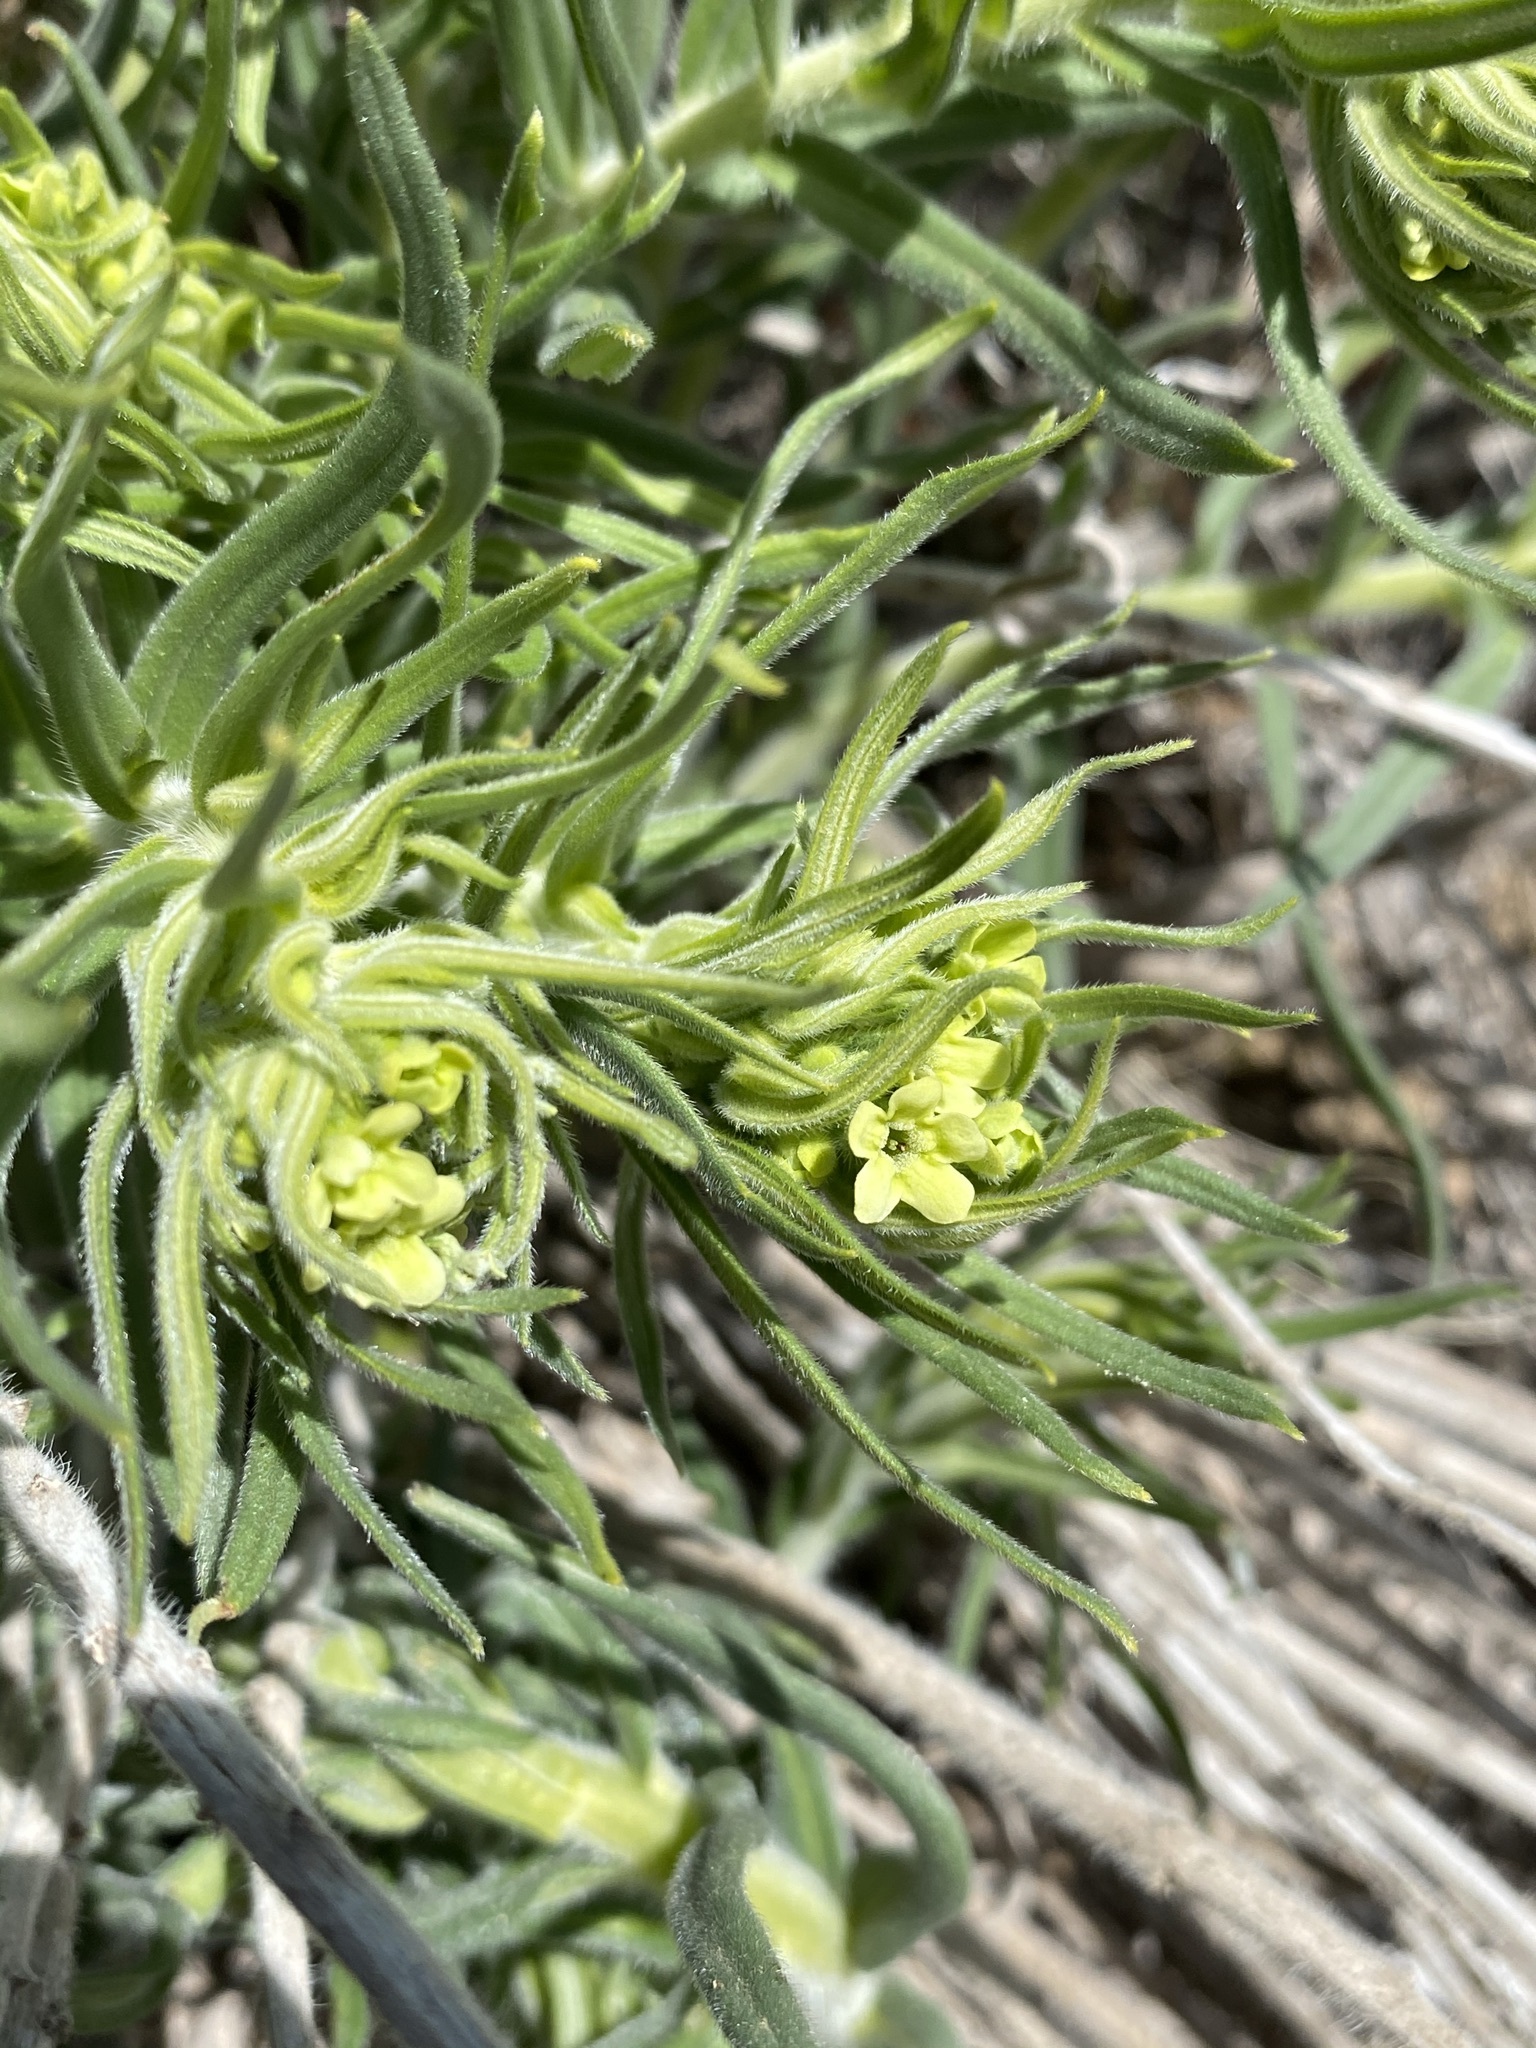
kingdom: Plantae
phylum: Tracheophyta
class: Magnoliopsida
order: Boraginales
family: Boraginaceae
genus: Lithospermum
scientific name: Lithospermum ruderale
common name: Western gromwell
